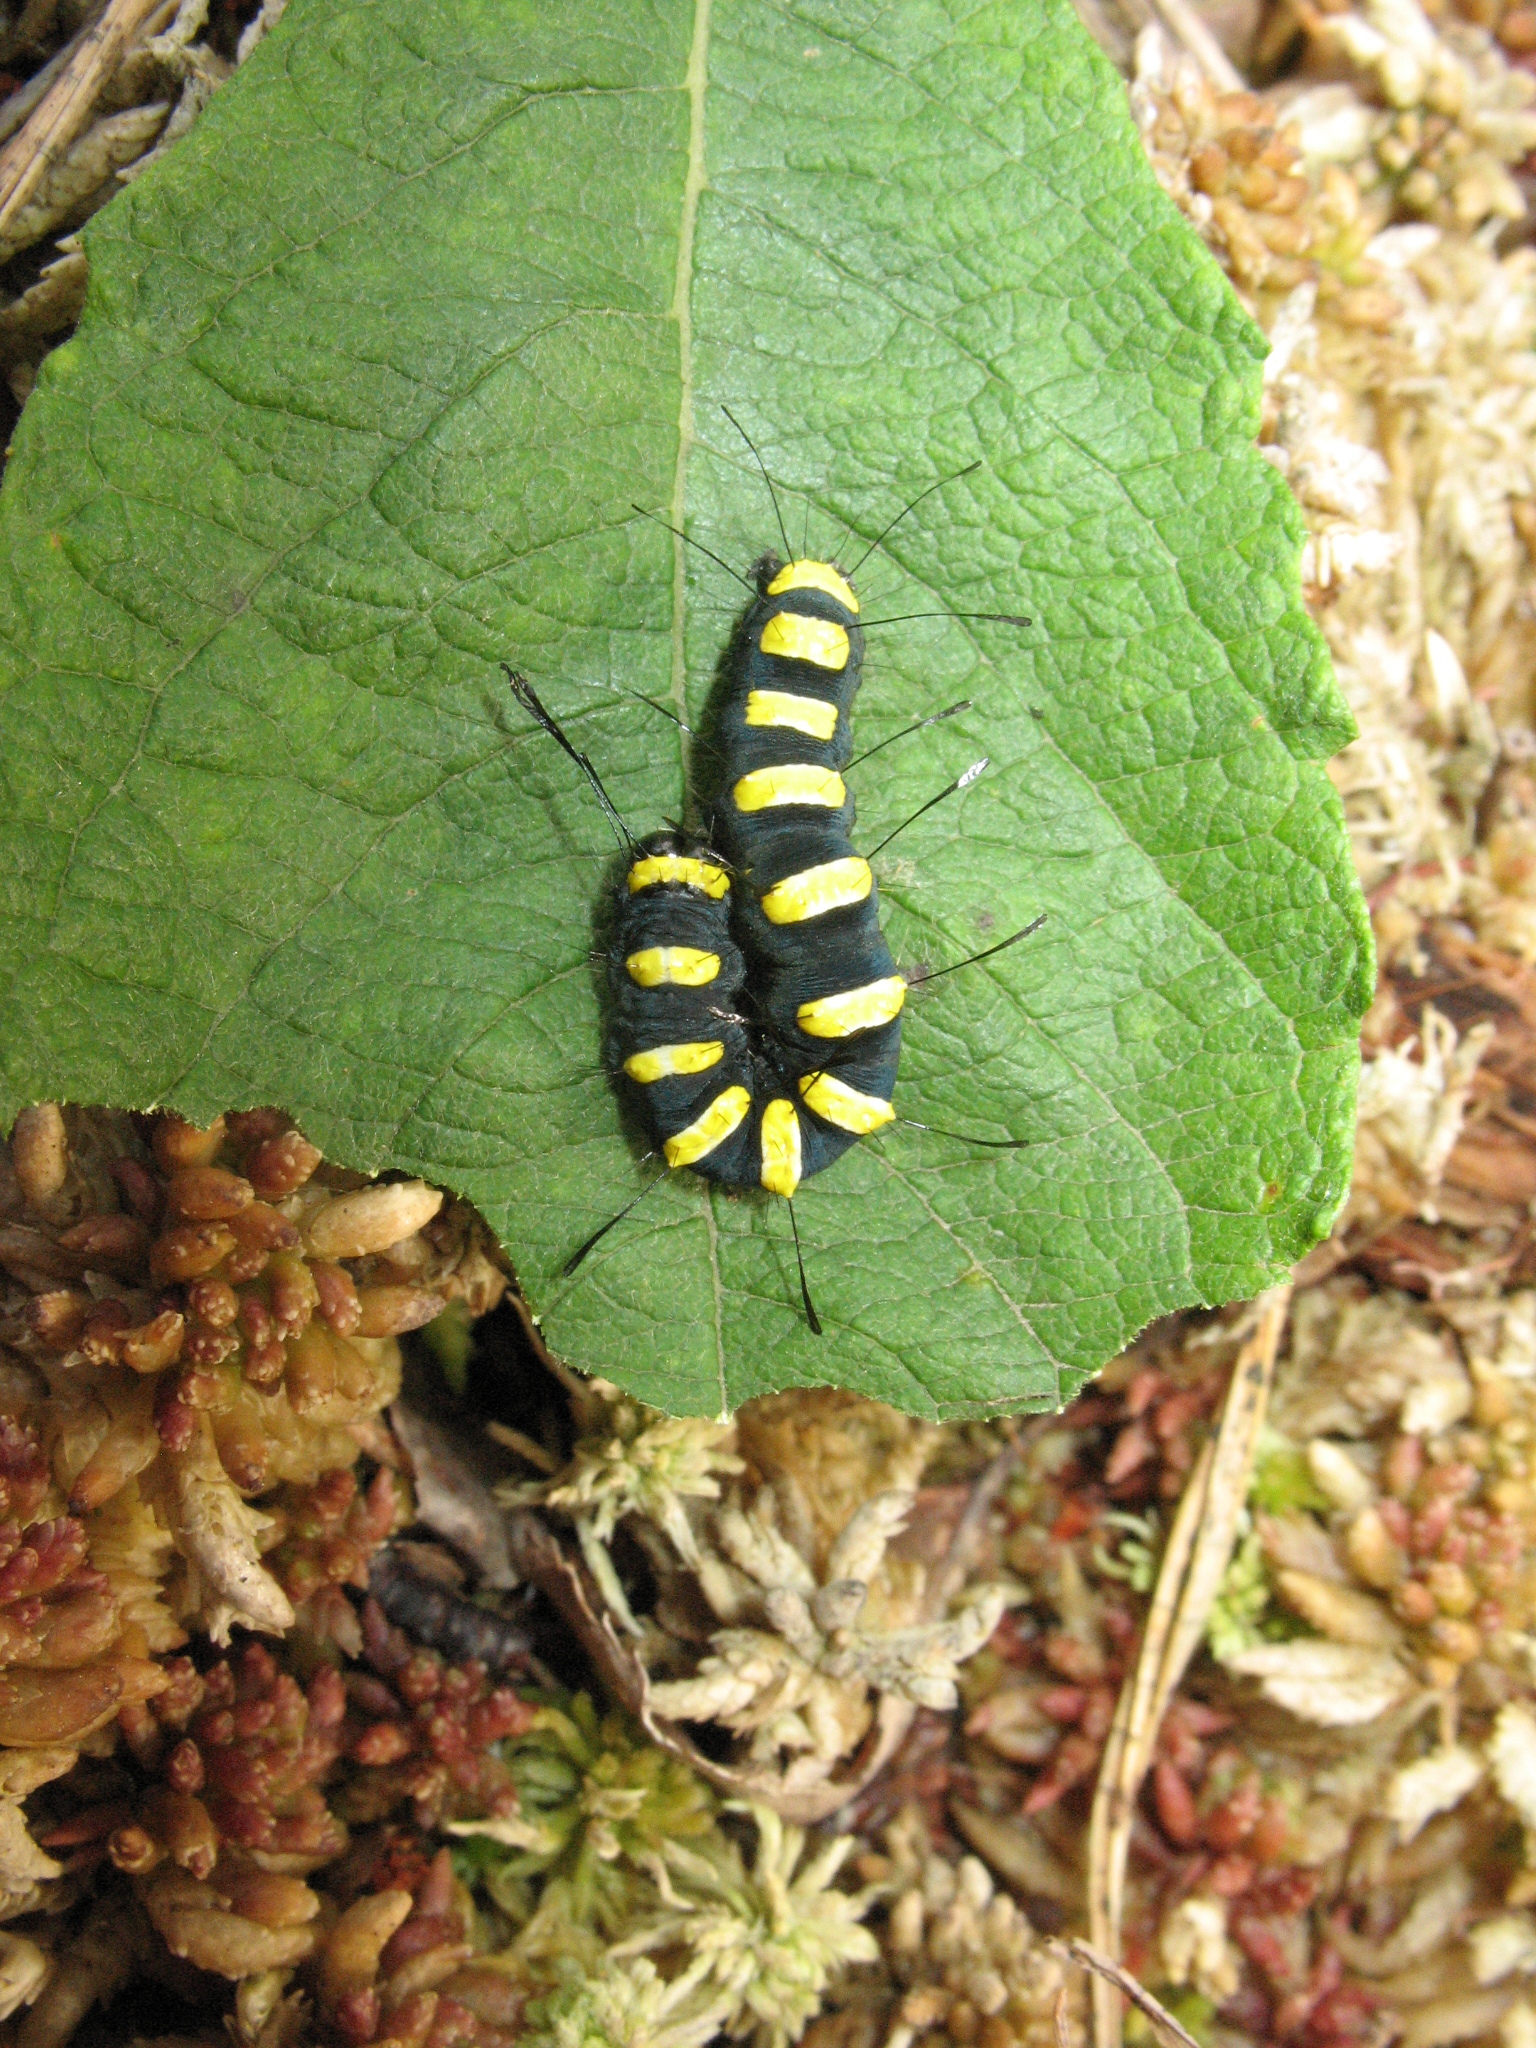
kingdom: Animalia
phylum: Arthropoda
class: Insecta
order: Lepidoptera
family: Noctuidae
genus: Acronicta
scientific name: Acronicta alni
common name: Alder moth
